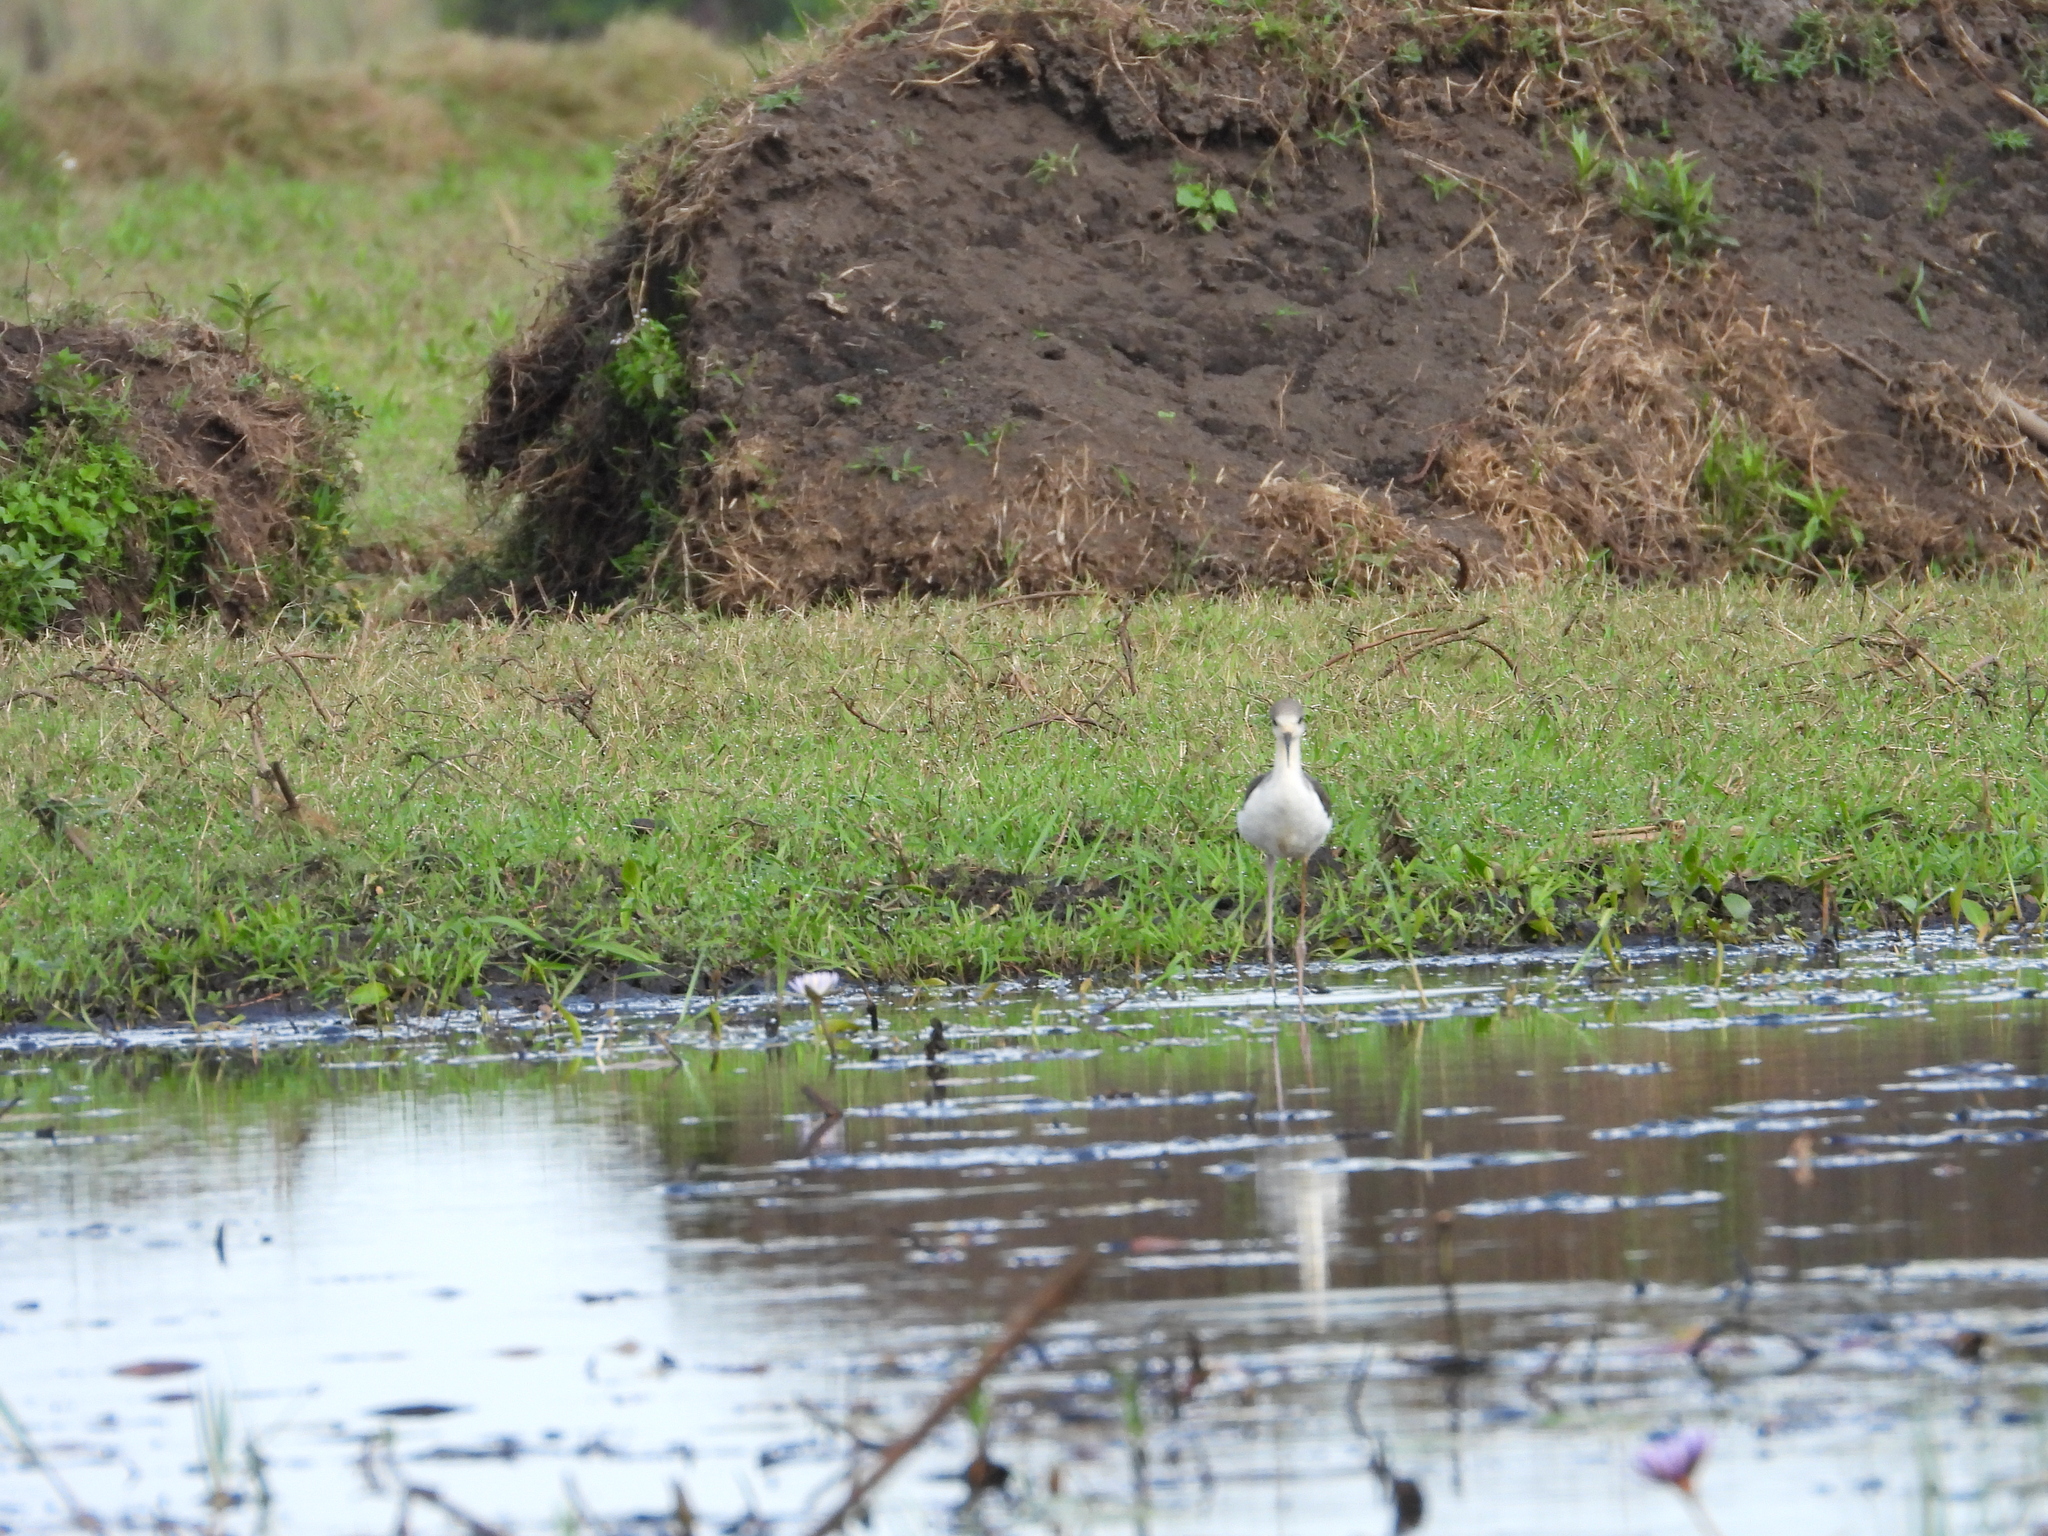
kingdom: Animalia
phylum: Chordata
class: Aves
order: Charadriiformes
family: Recurvirostridae
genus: Himantopus
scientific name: Himantopus himantopus
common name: Black-winged stilt
